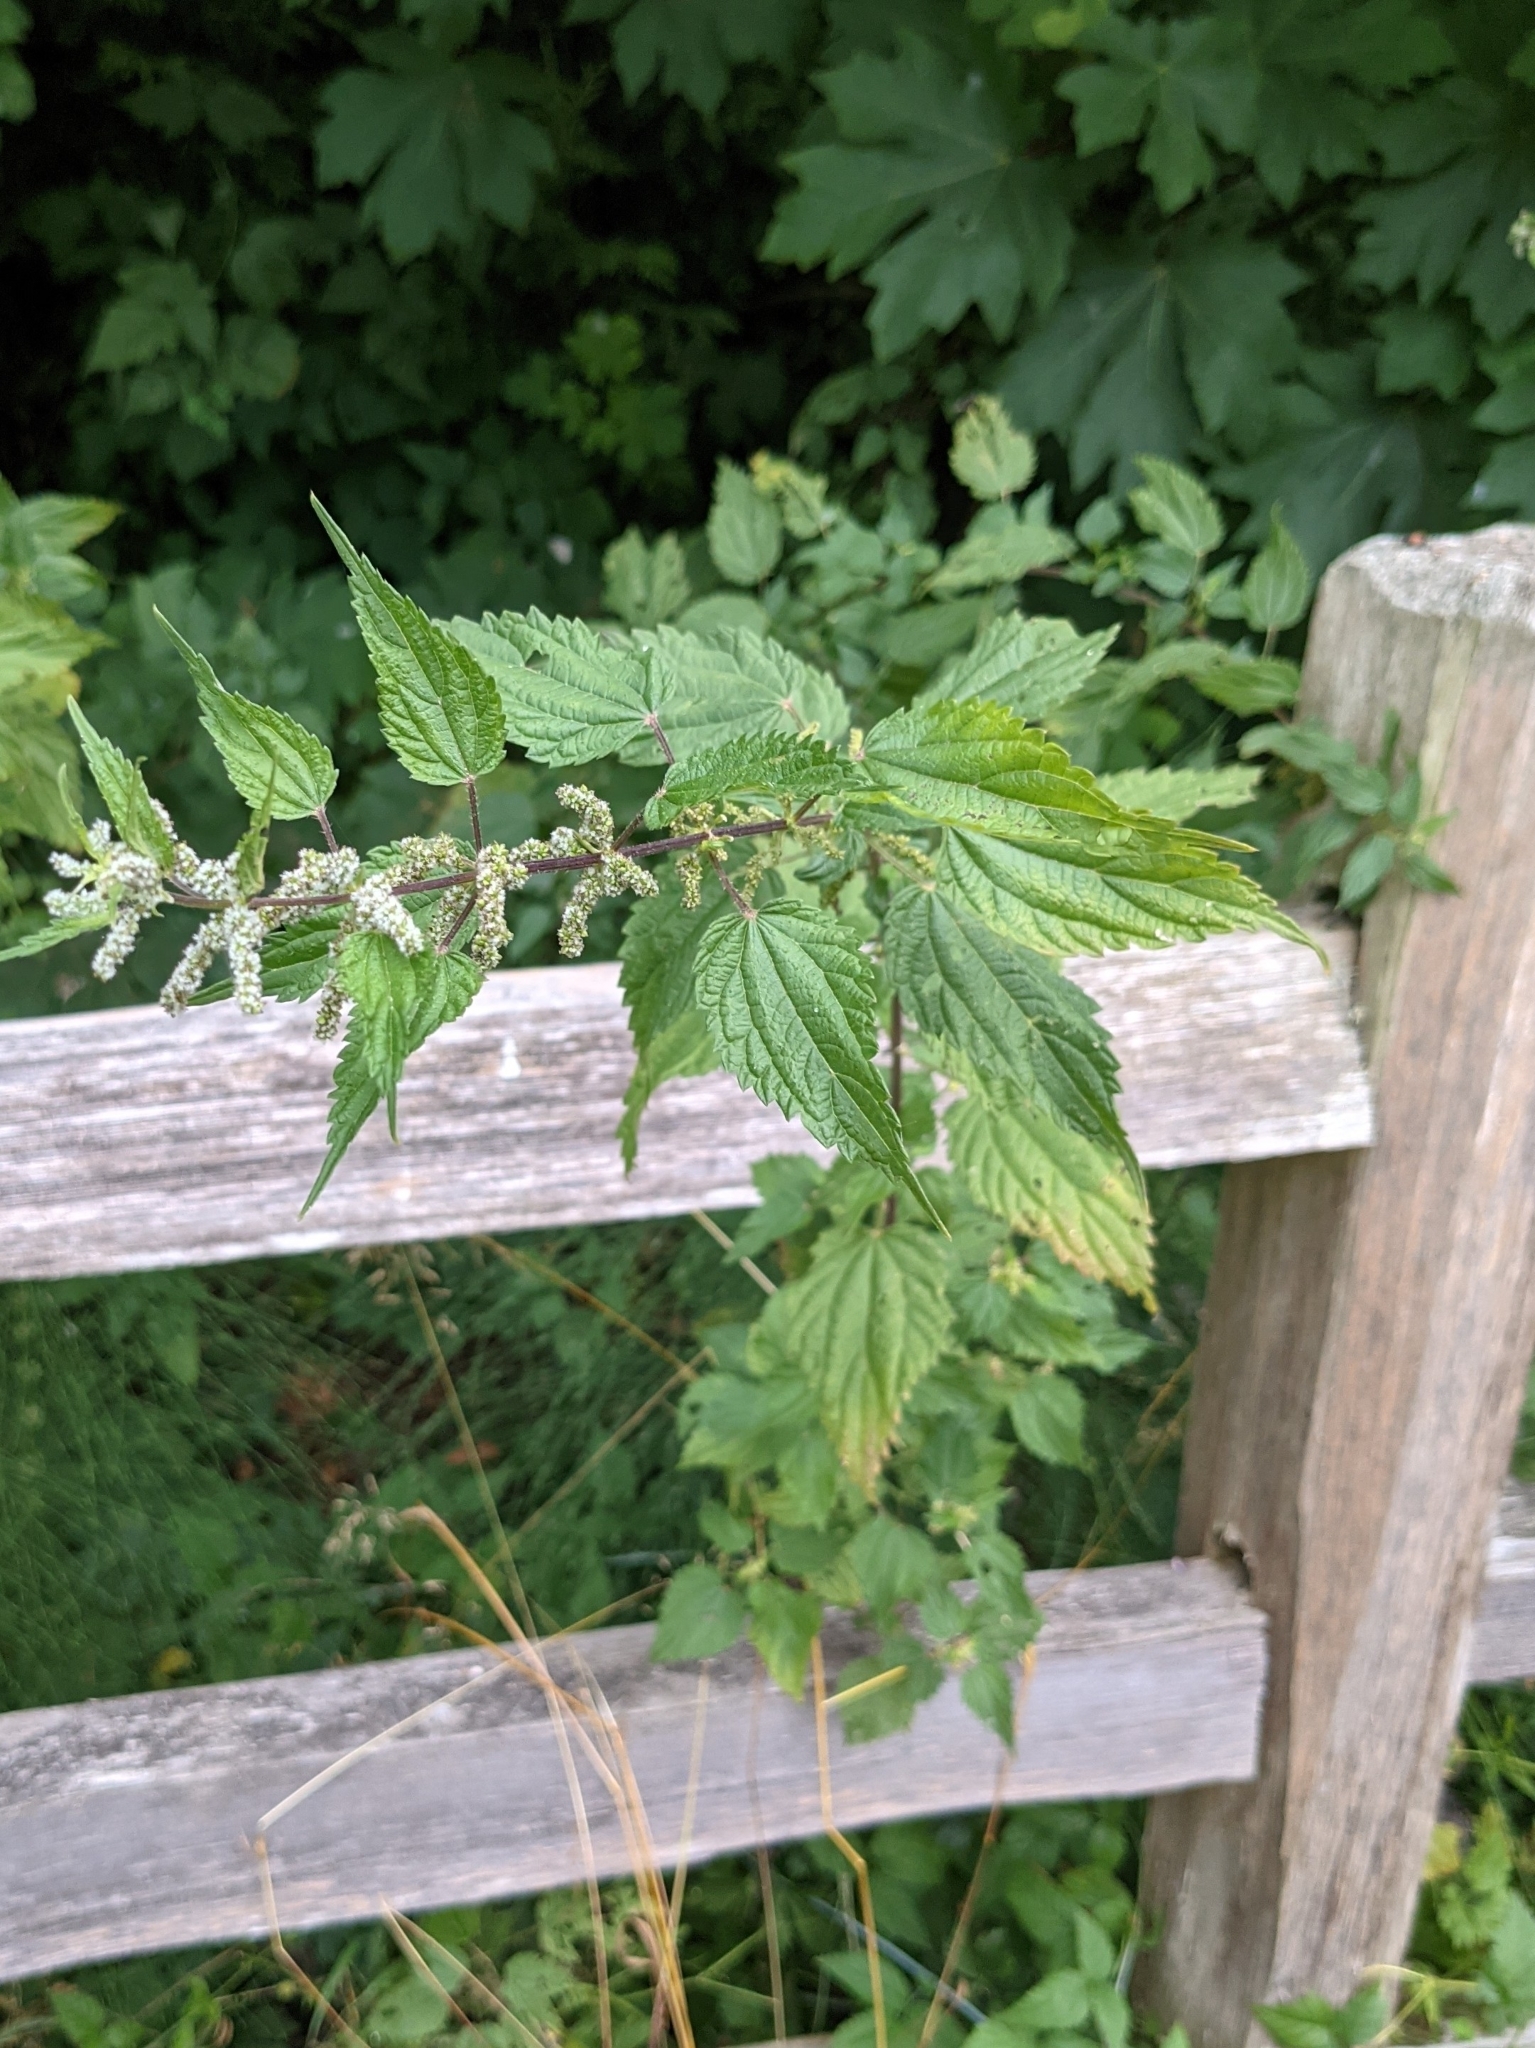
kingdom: Plantae
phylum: Tracheophyta
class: Magnoliopsida
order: Rosales
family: Urticaceae
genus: Urtica
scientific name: Urtica dioica
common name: Common nettle
